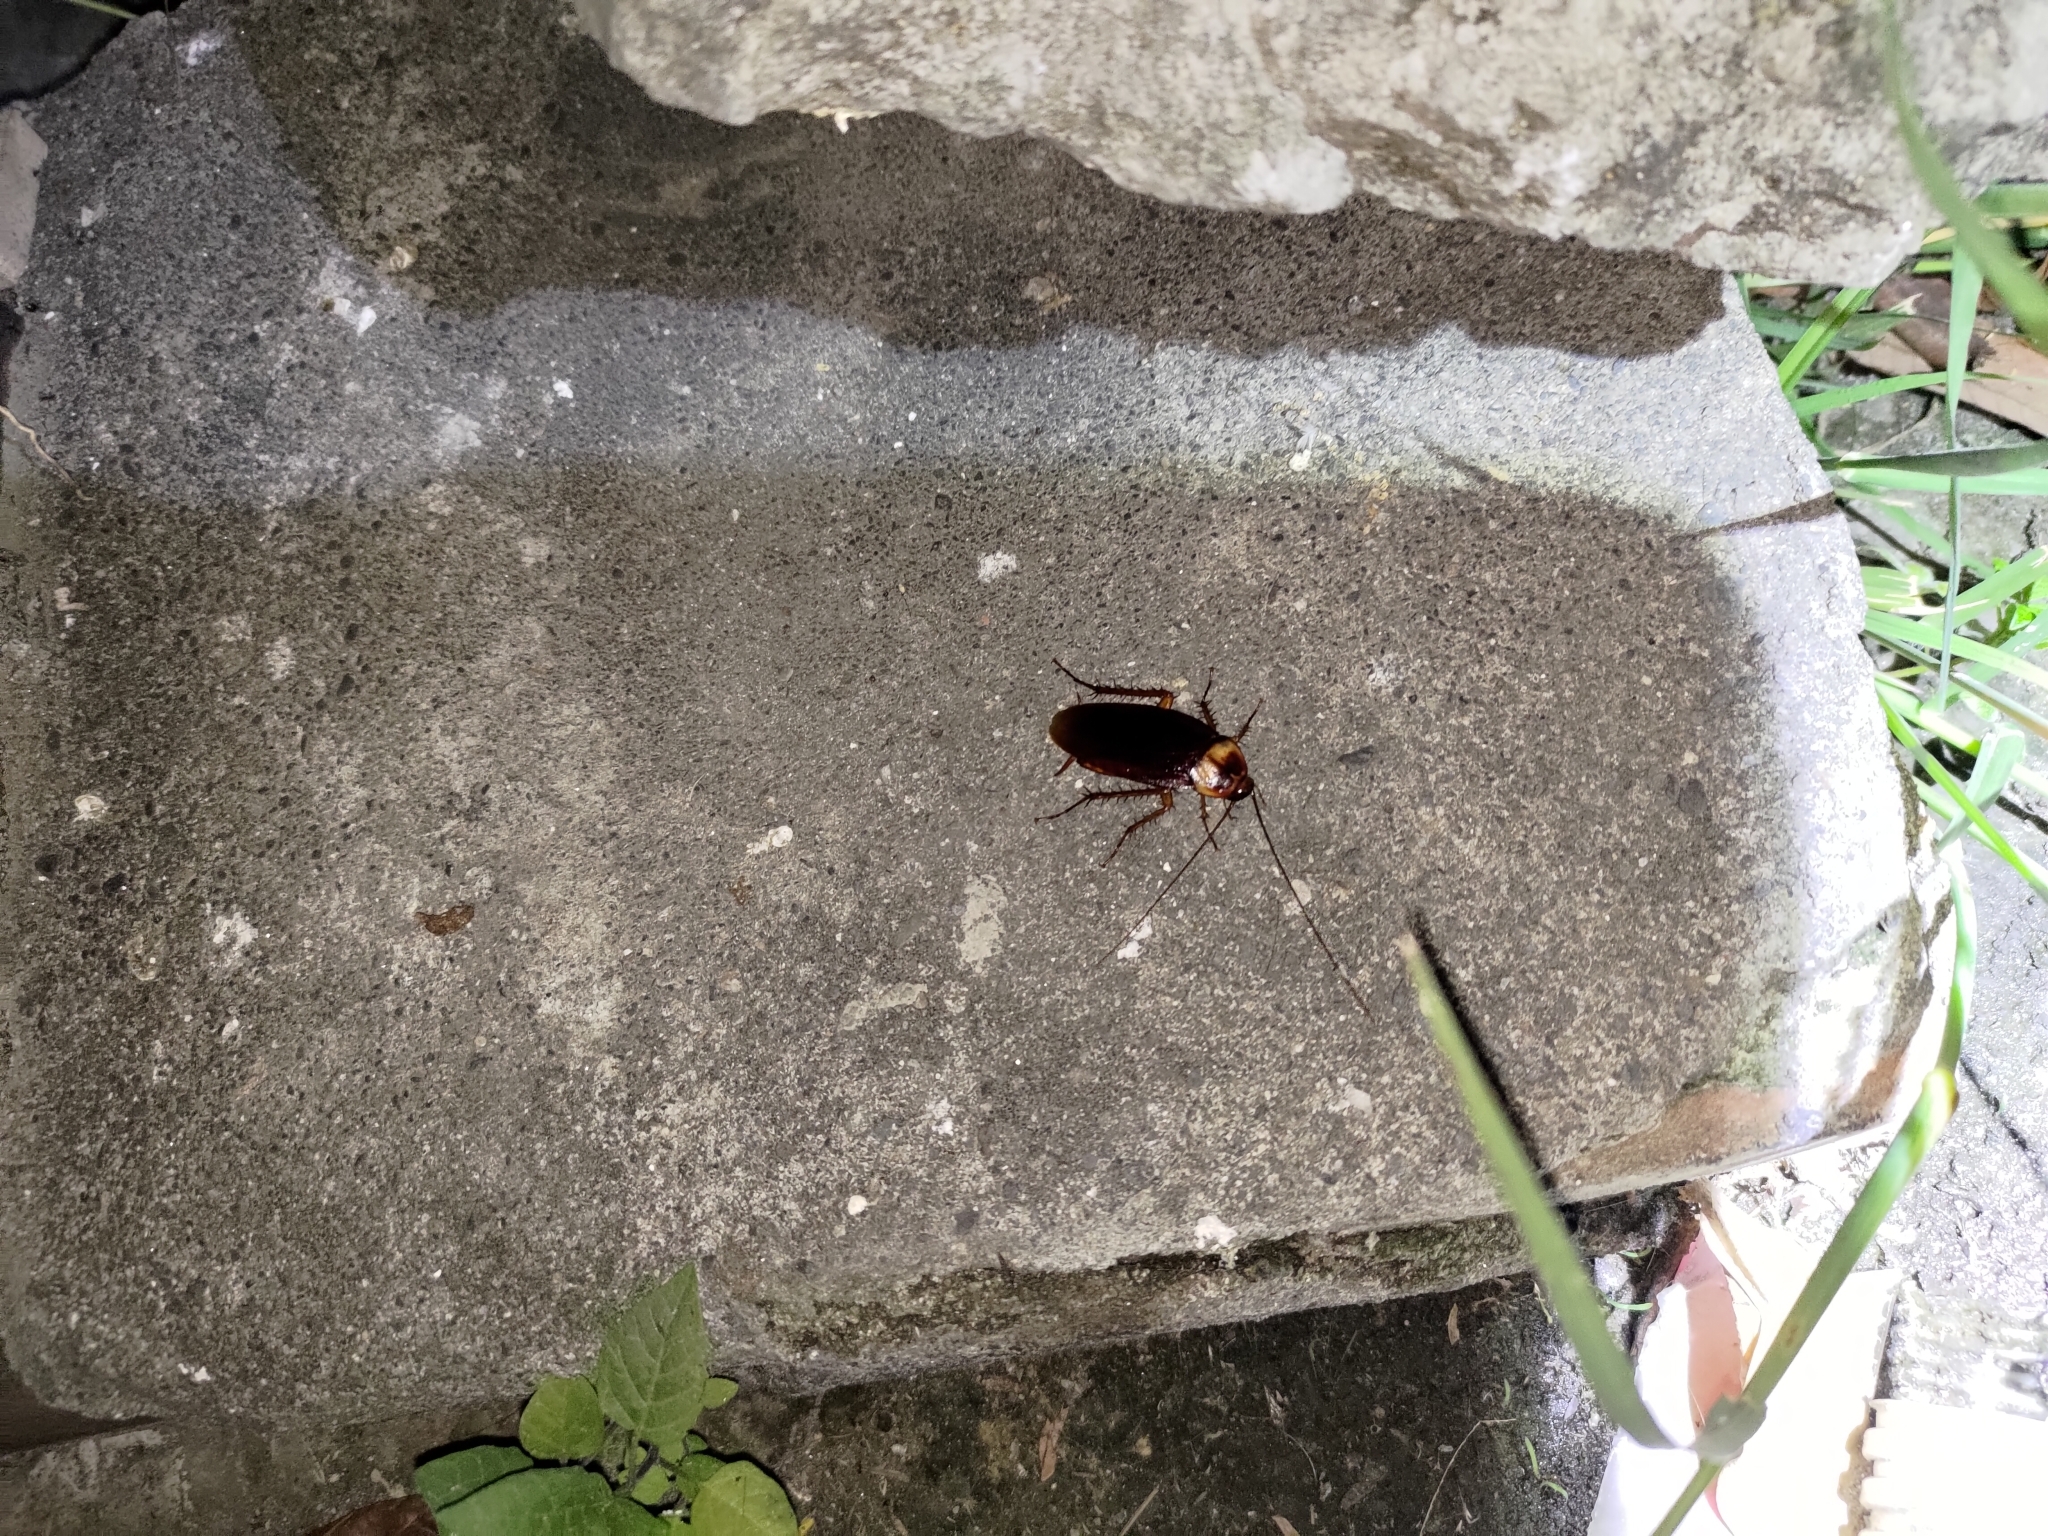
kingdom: Animalia
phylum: Arthropoda
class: Insecta
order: Blattodea
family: Blattidae
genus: Periplaneta
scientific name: Periplaneta americana
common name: American cockroach
